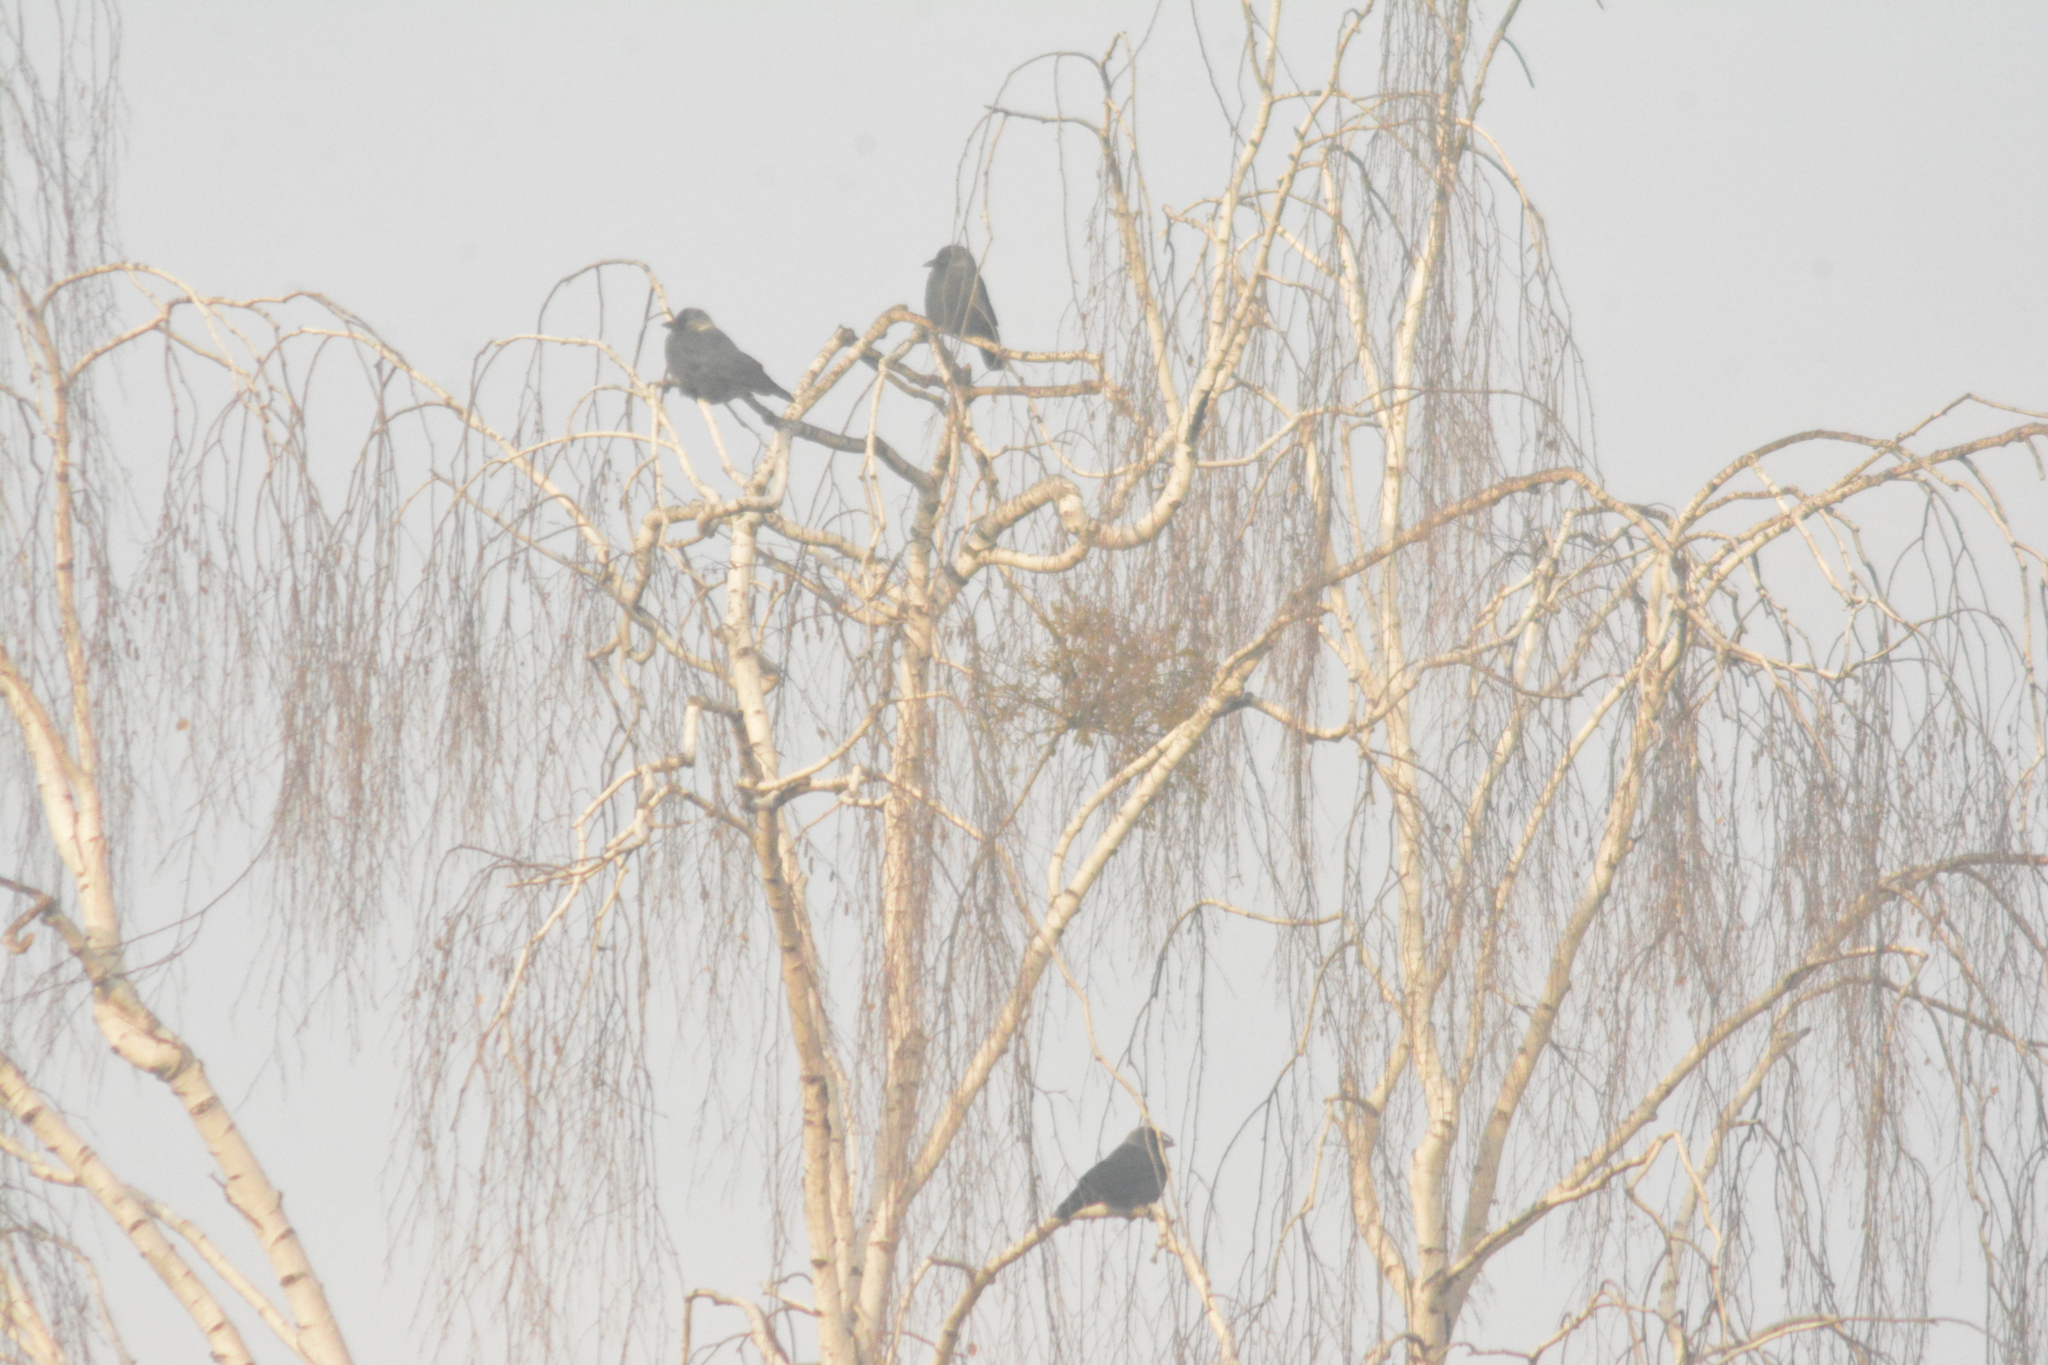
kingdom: Animalia
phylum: Chordata
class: Aves
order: Passeriformes
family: Corvidae
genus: Coloeus
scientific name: Coloeus monedula
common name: Western jackdaw
